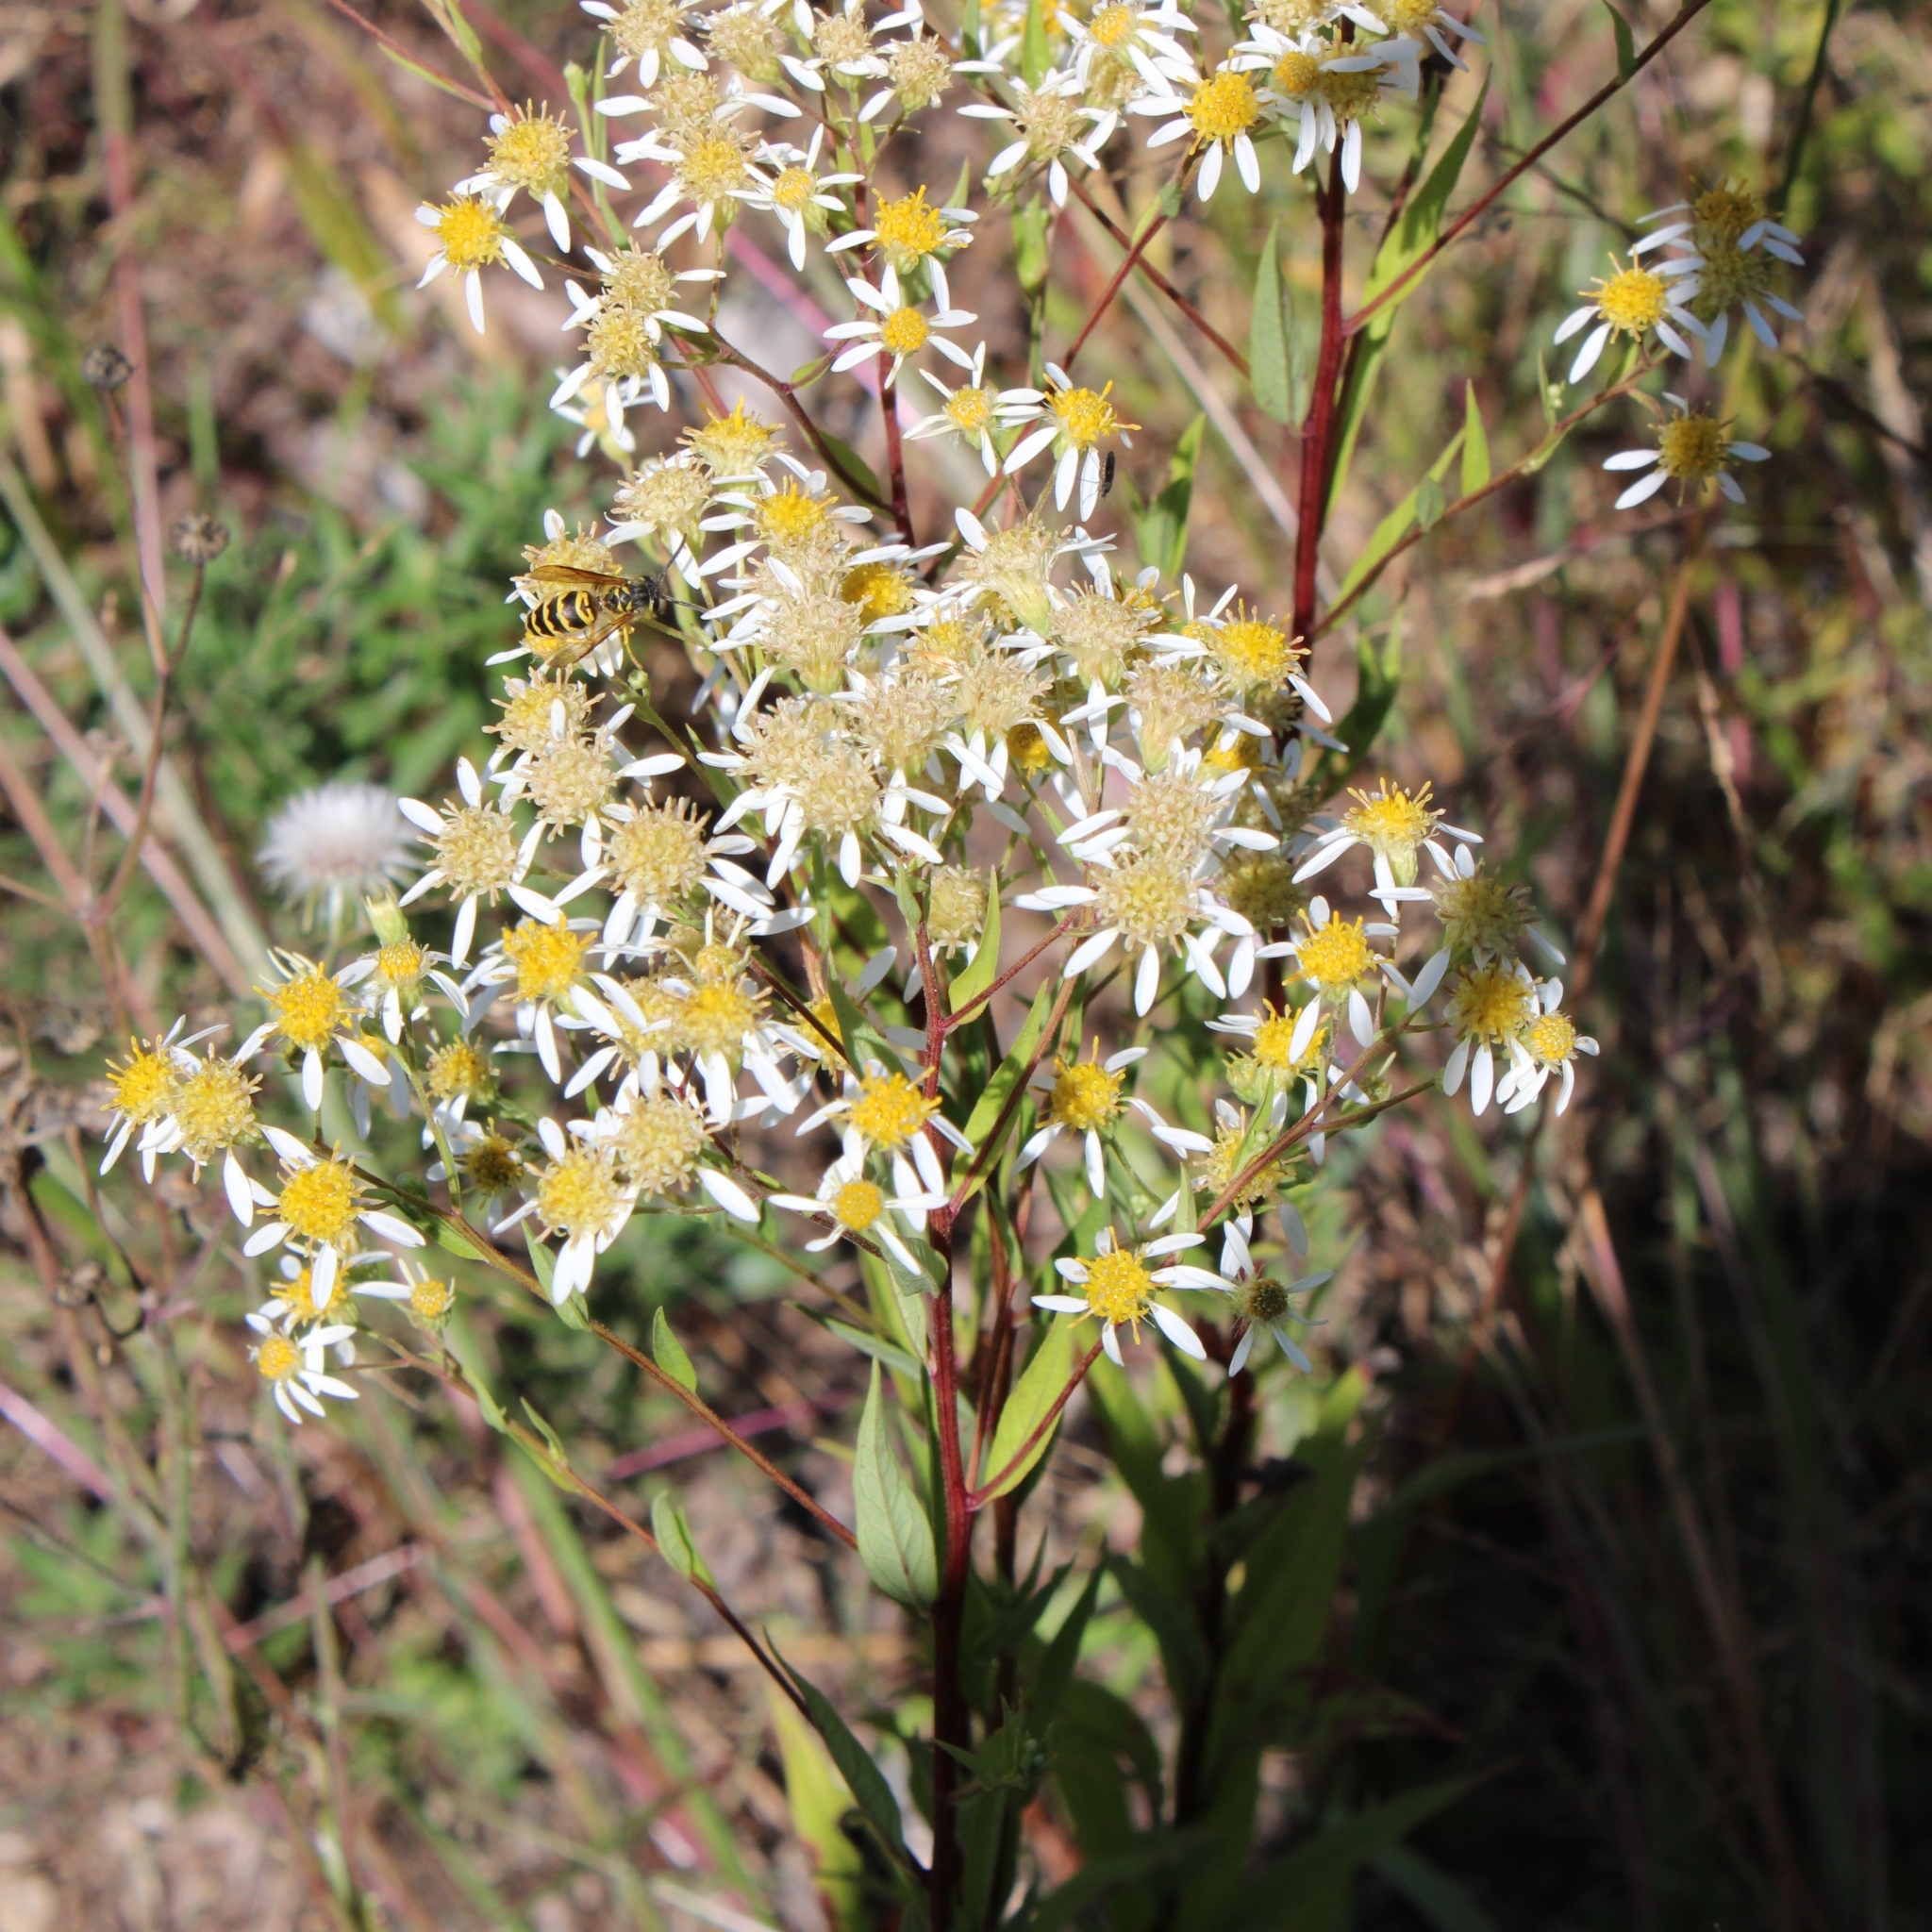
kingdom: Plantae
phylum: Tracheophyta
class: Magnoliopsida
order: Asterales
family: Asteraceae
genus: Doellingeria
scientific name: Doellingeria umbellata
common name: Flat-top white aster
